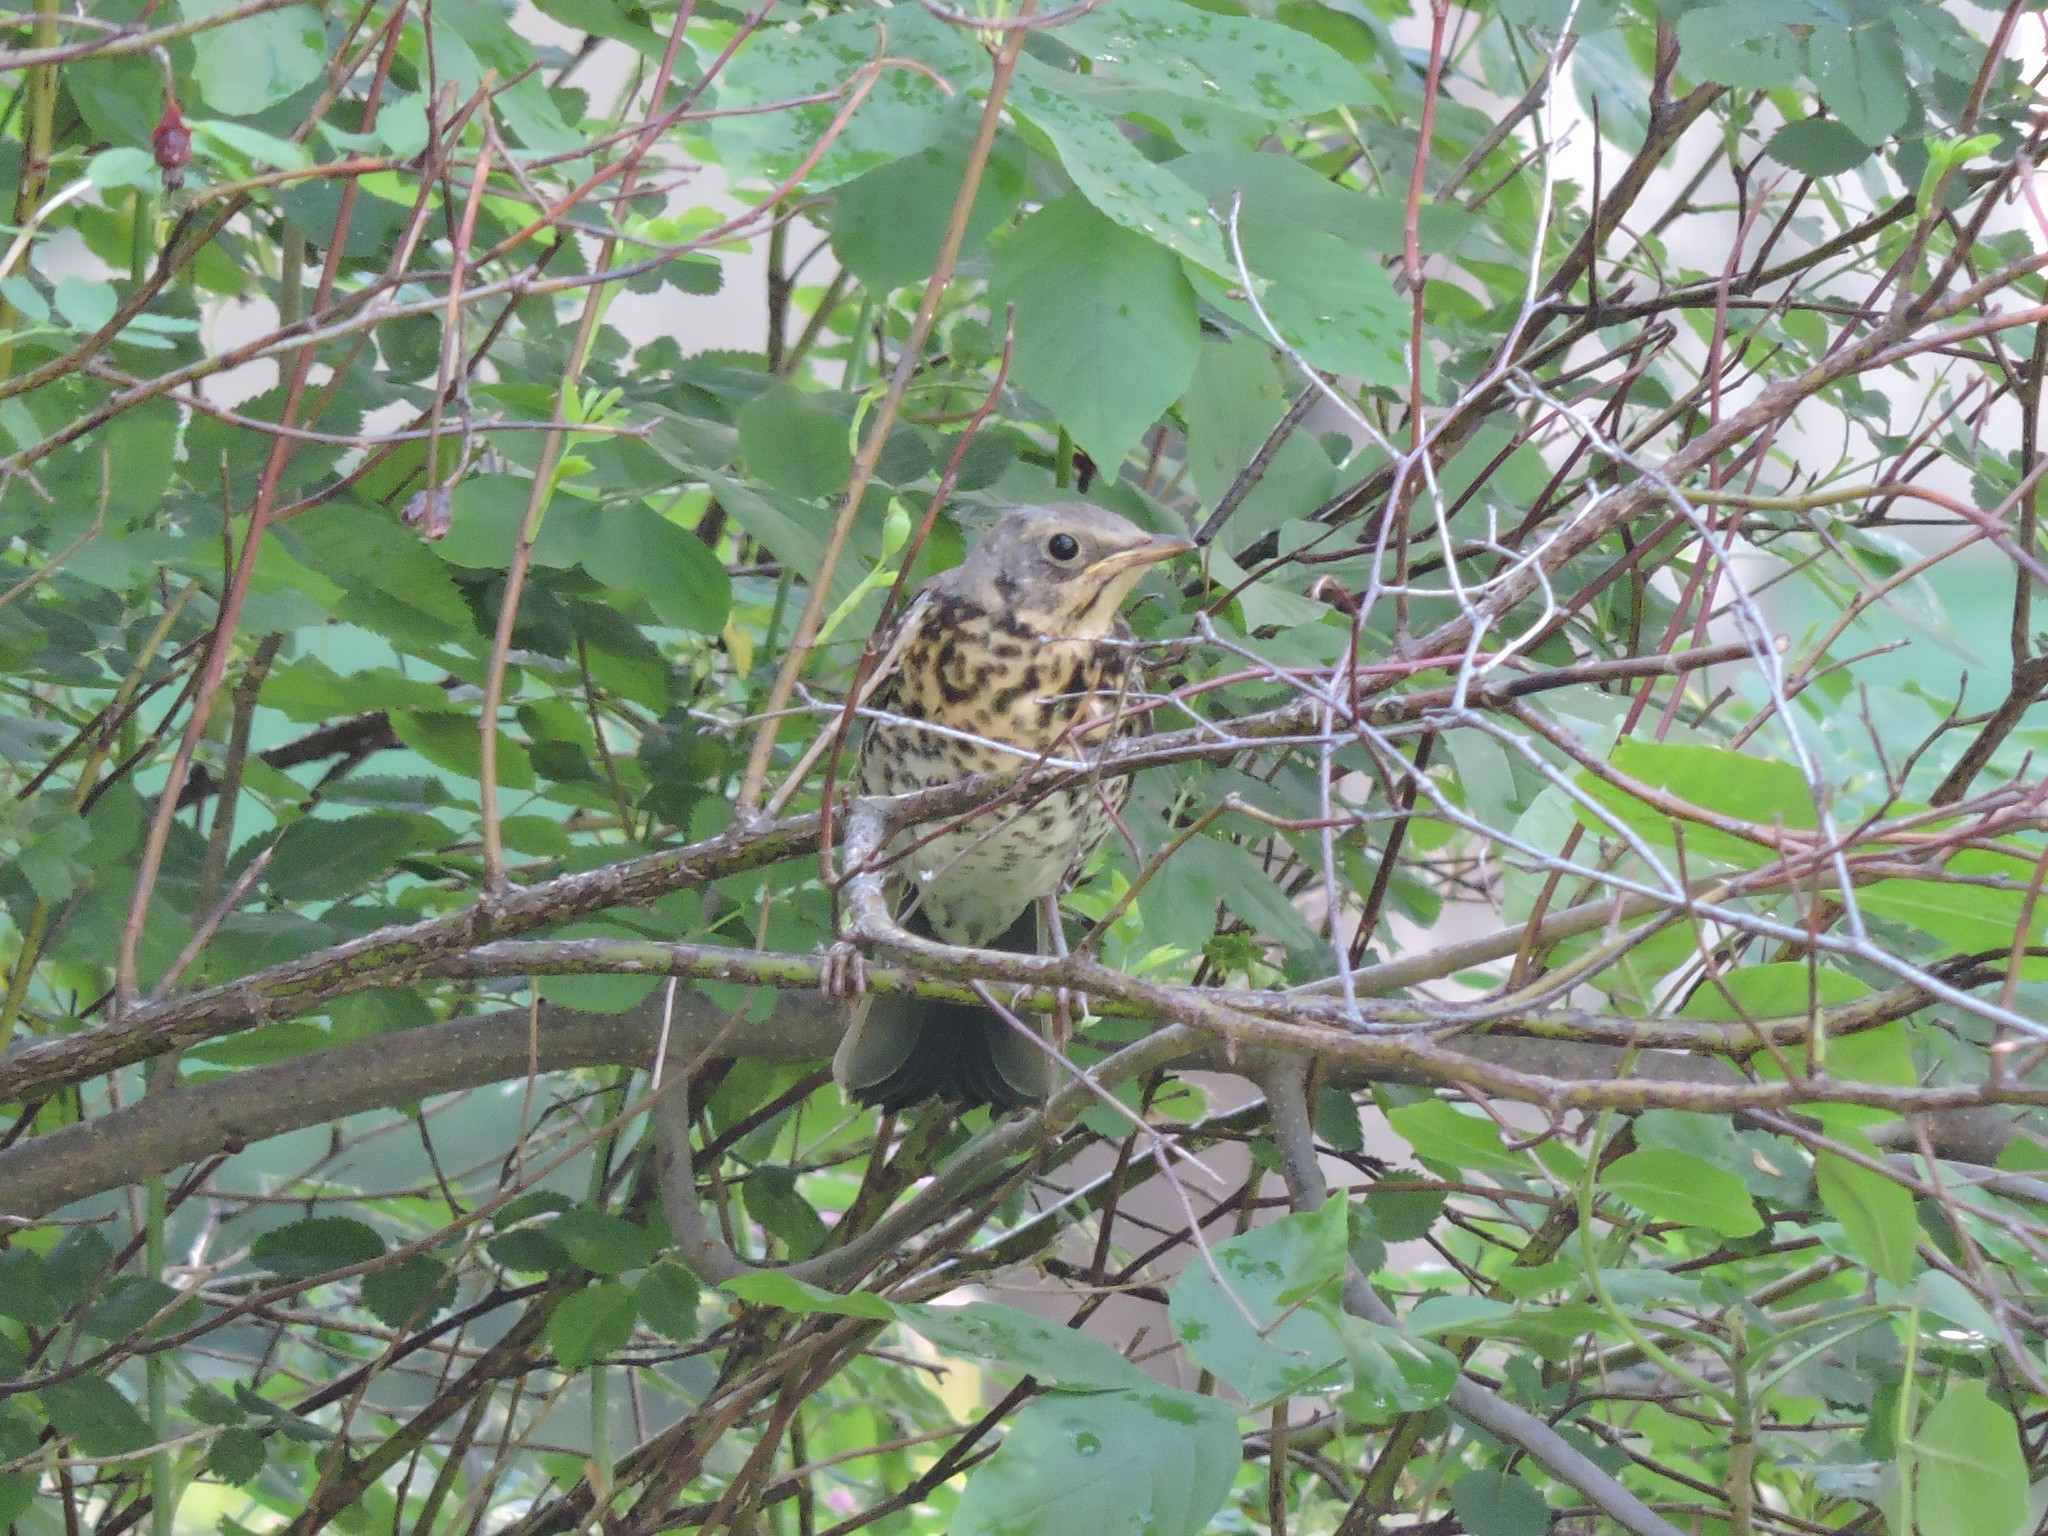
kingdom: Animalia
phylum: Chordata
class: Aves
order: Passeriformes
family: Turdidae
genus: Turdus
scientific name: Turdus pilaris
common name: Fieldfare
